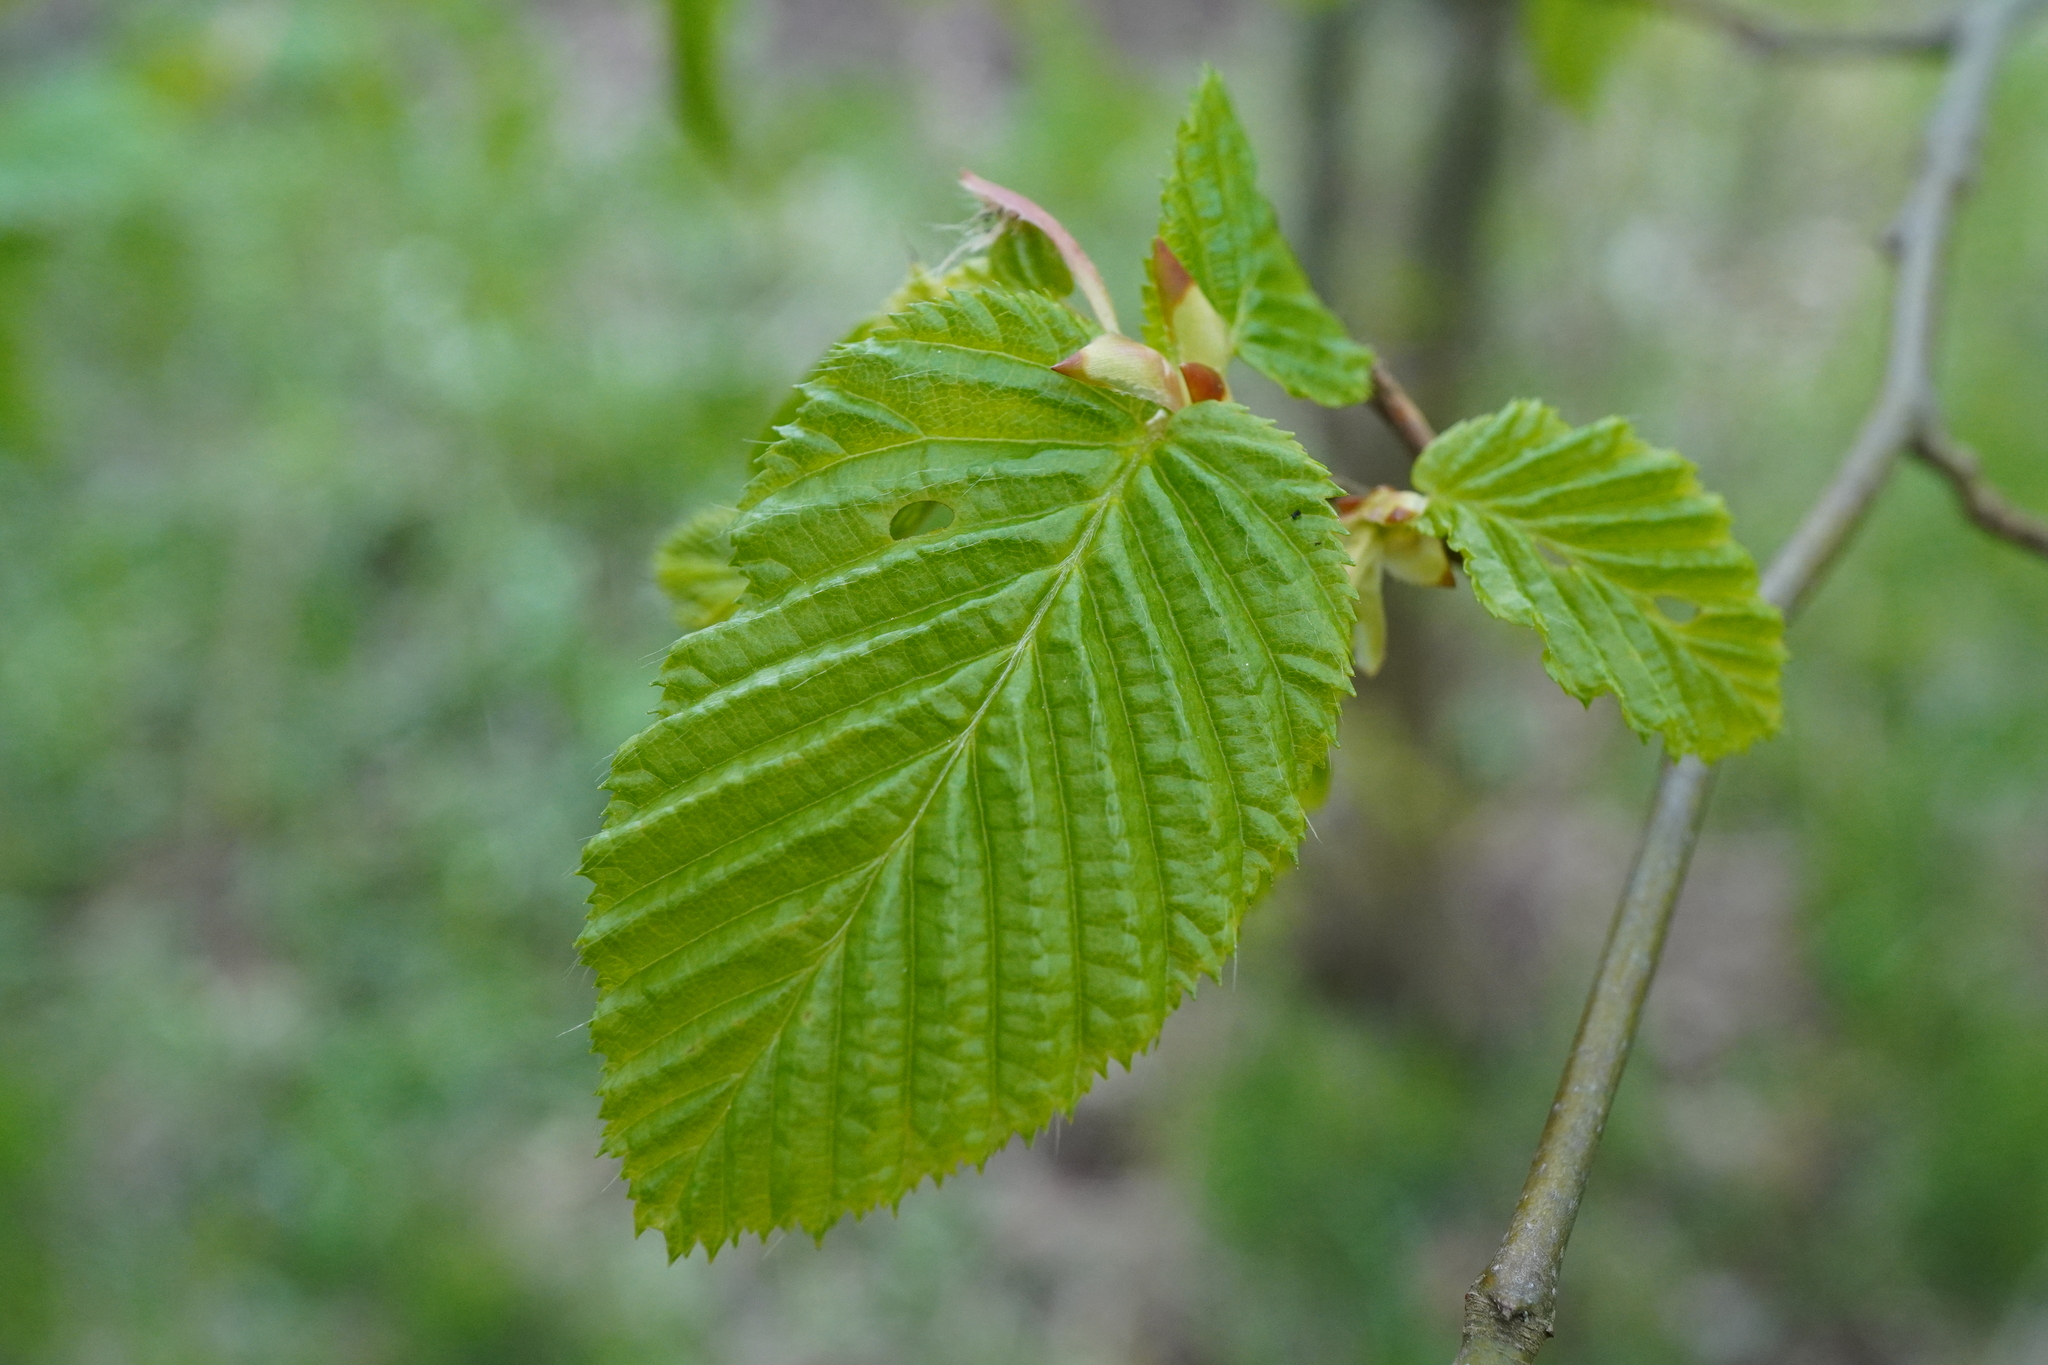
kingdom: Plantae
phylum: Tracheophyta
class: Magnoliopsida
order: Fagales
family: Betulaceae
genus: Carpinus
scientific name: Carpinus betulus
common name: Hornbeam
